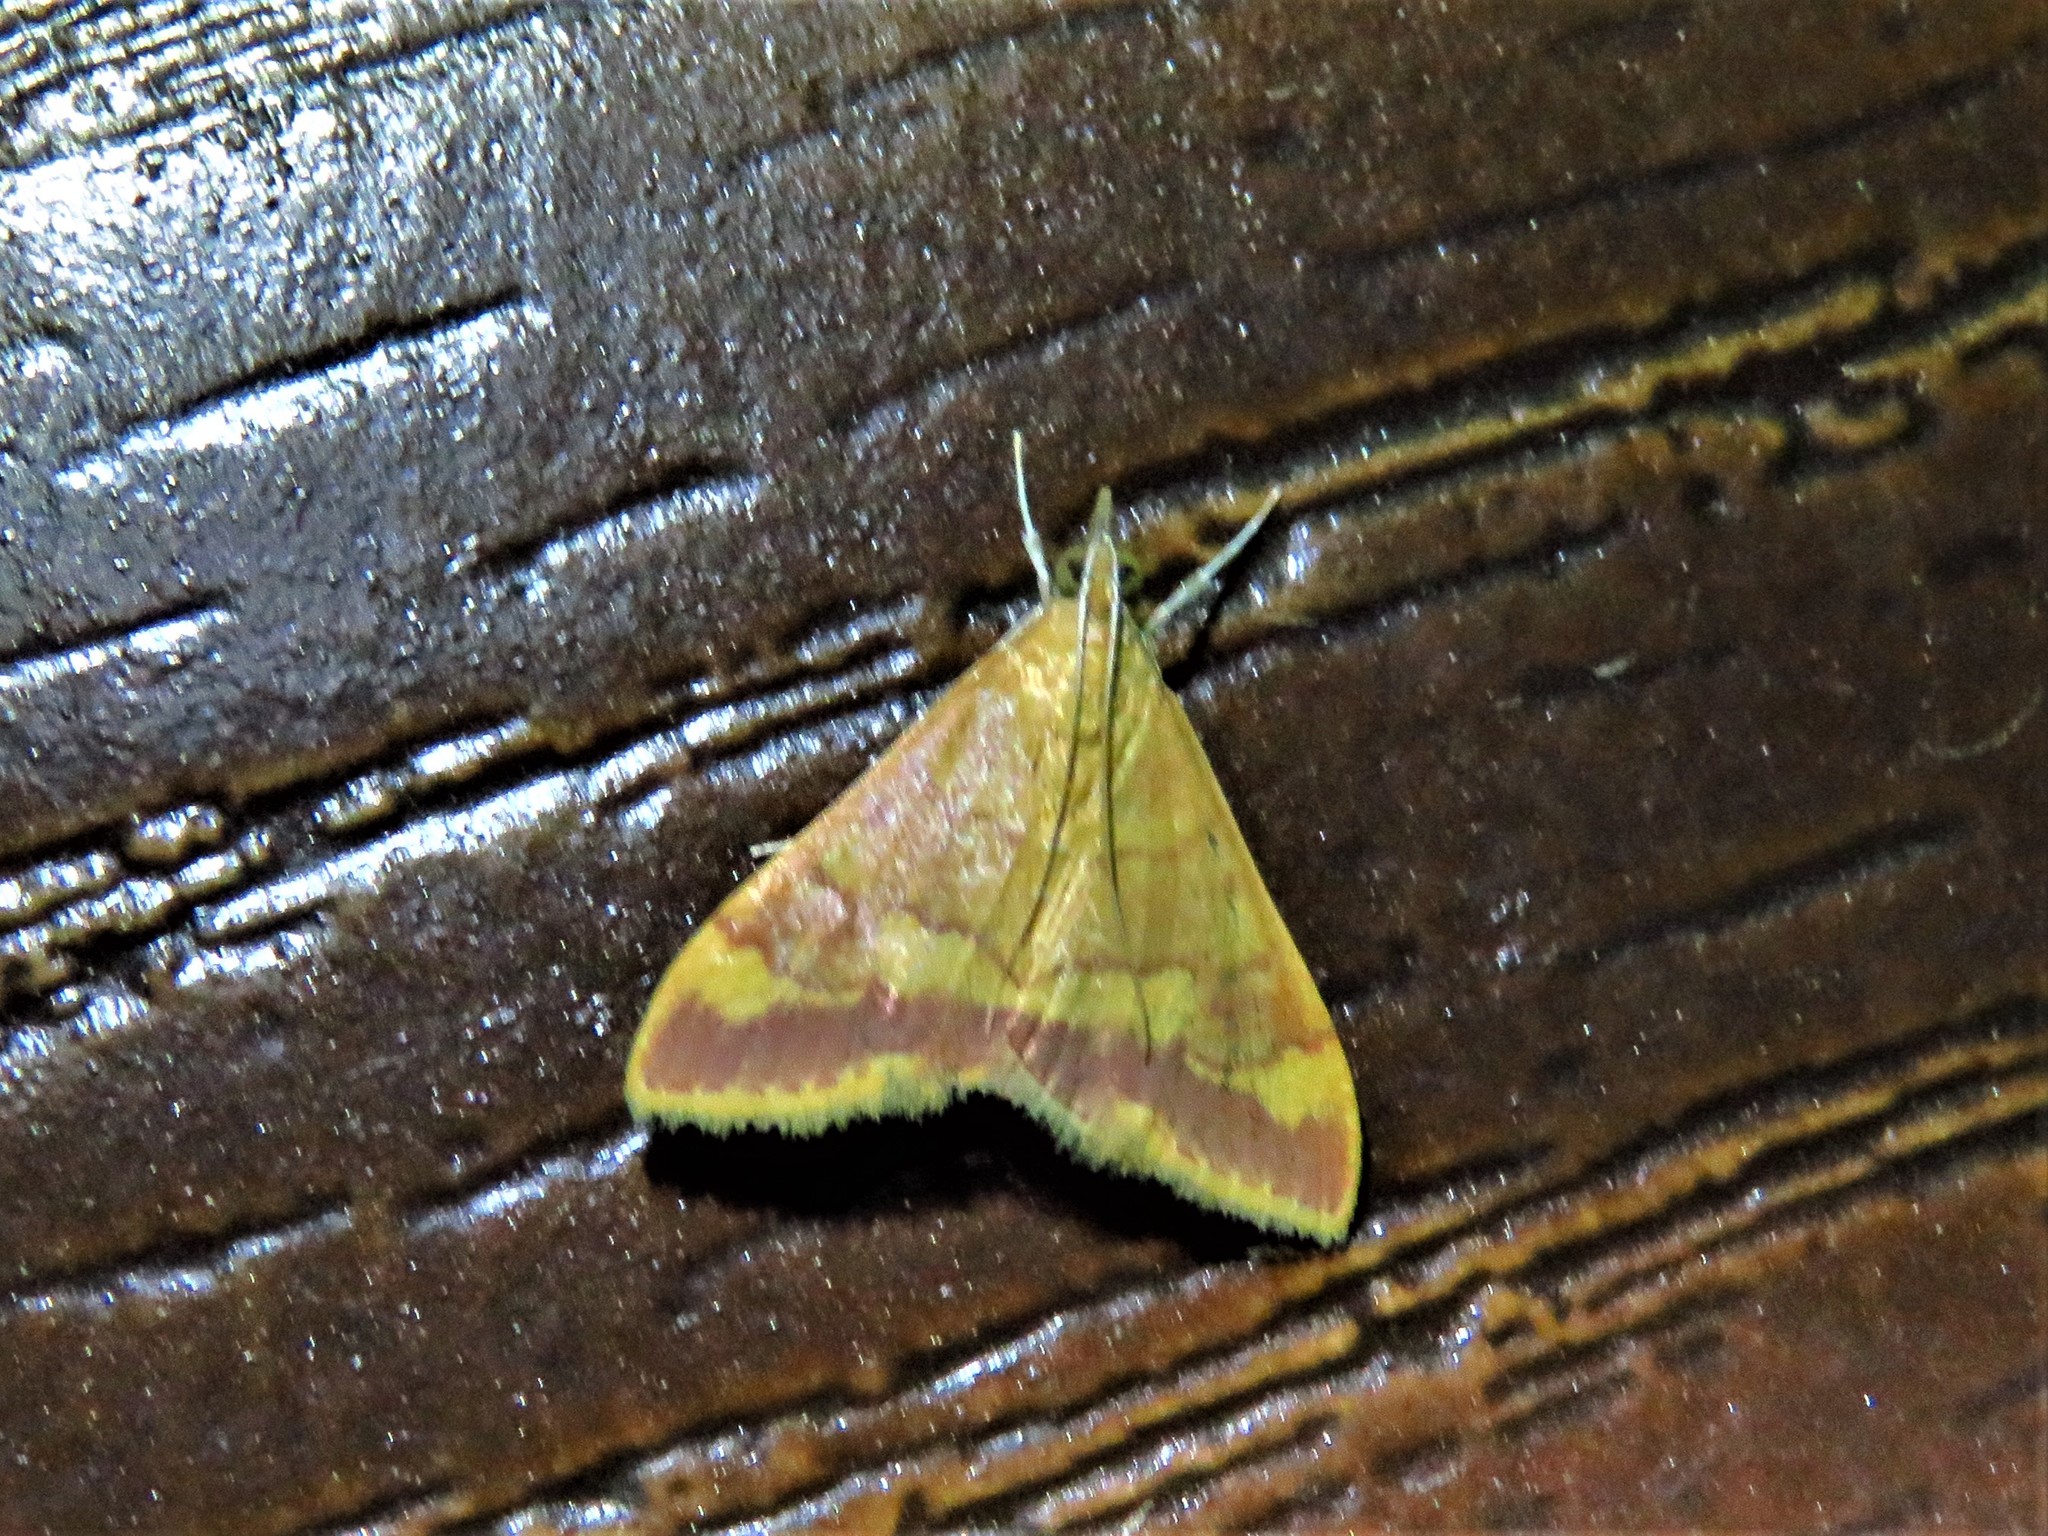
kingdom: Animalia
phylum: Arthropoda
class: Insecta
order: Lepidoptera
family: Crambidae
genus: Pyrausta
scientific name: Pyrausta pseudonythesalis
